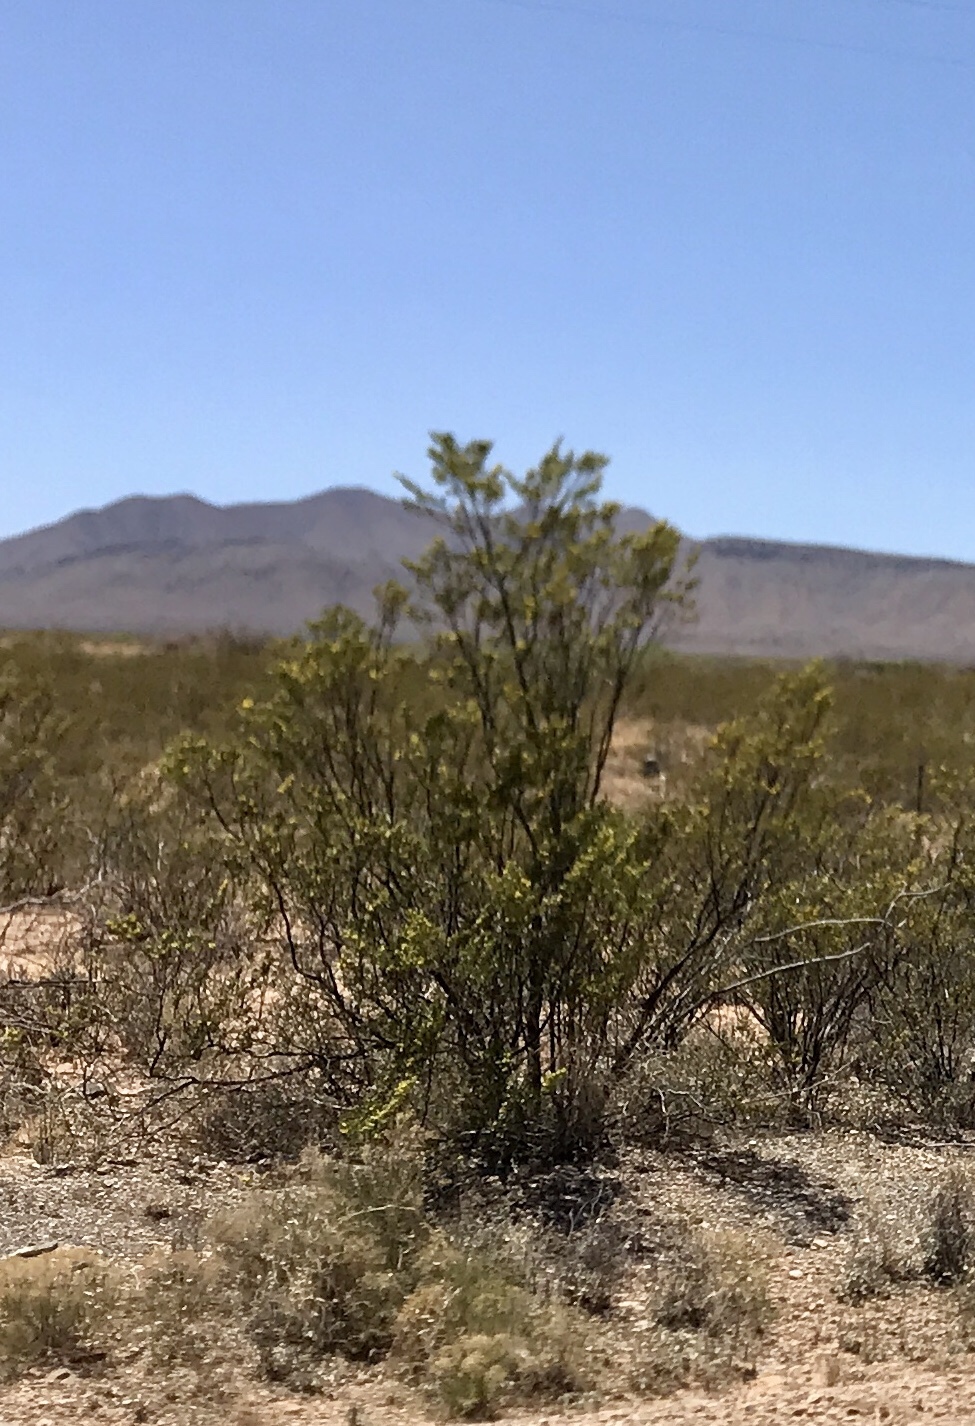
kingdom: Plantae
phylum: Tracheophyta
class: Magnoliopsida
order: Zygophyllales
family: Zygophyllaceae
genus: Larrea
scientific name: Larrea tridentata
